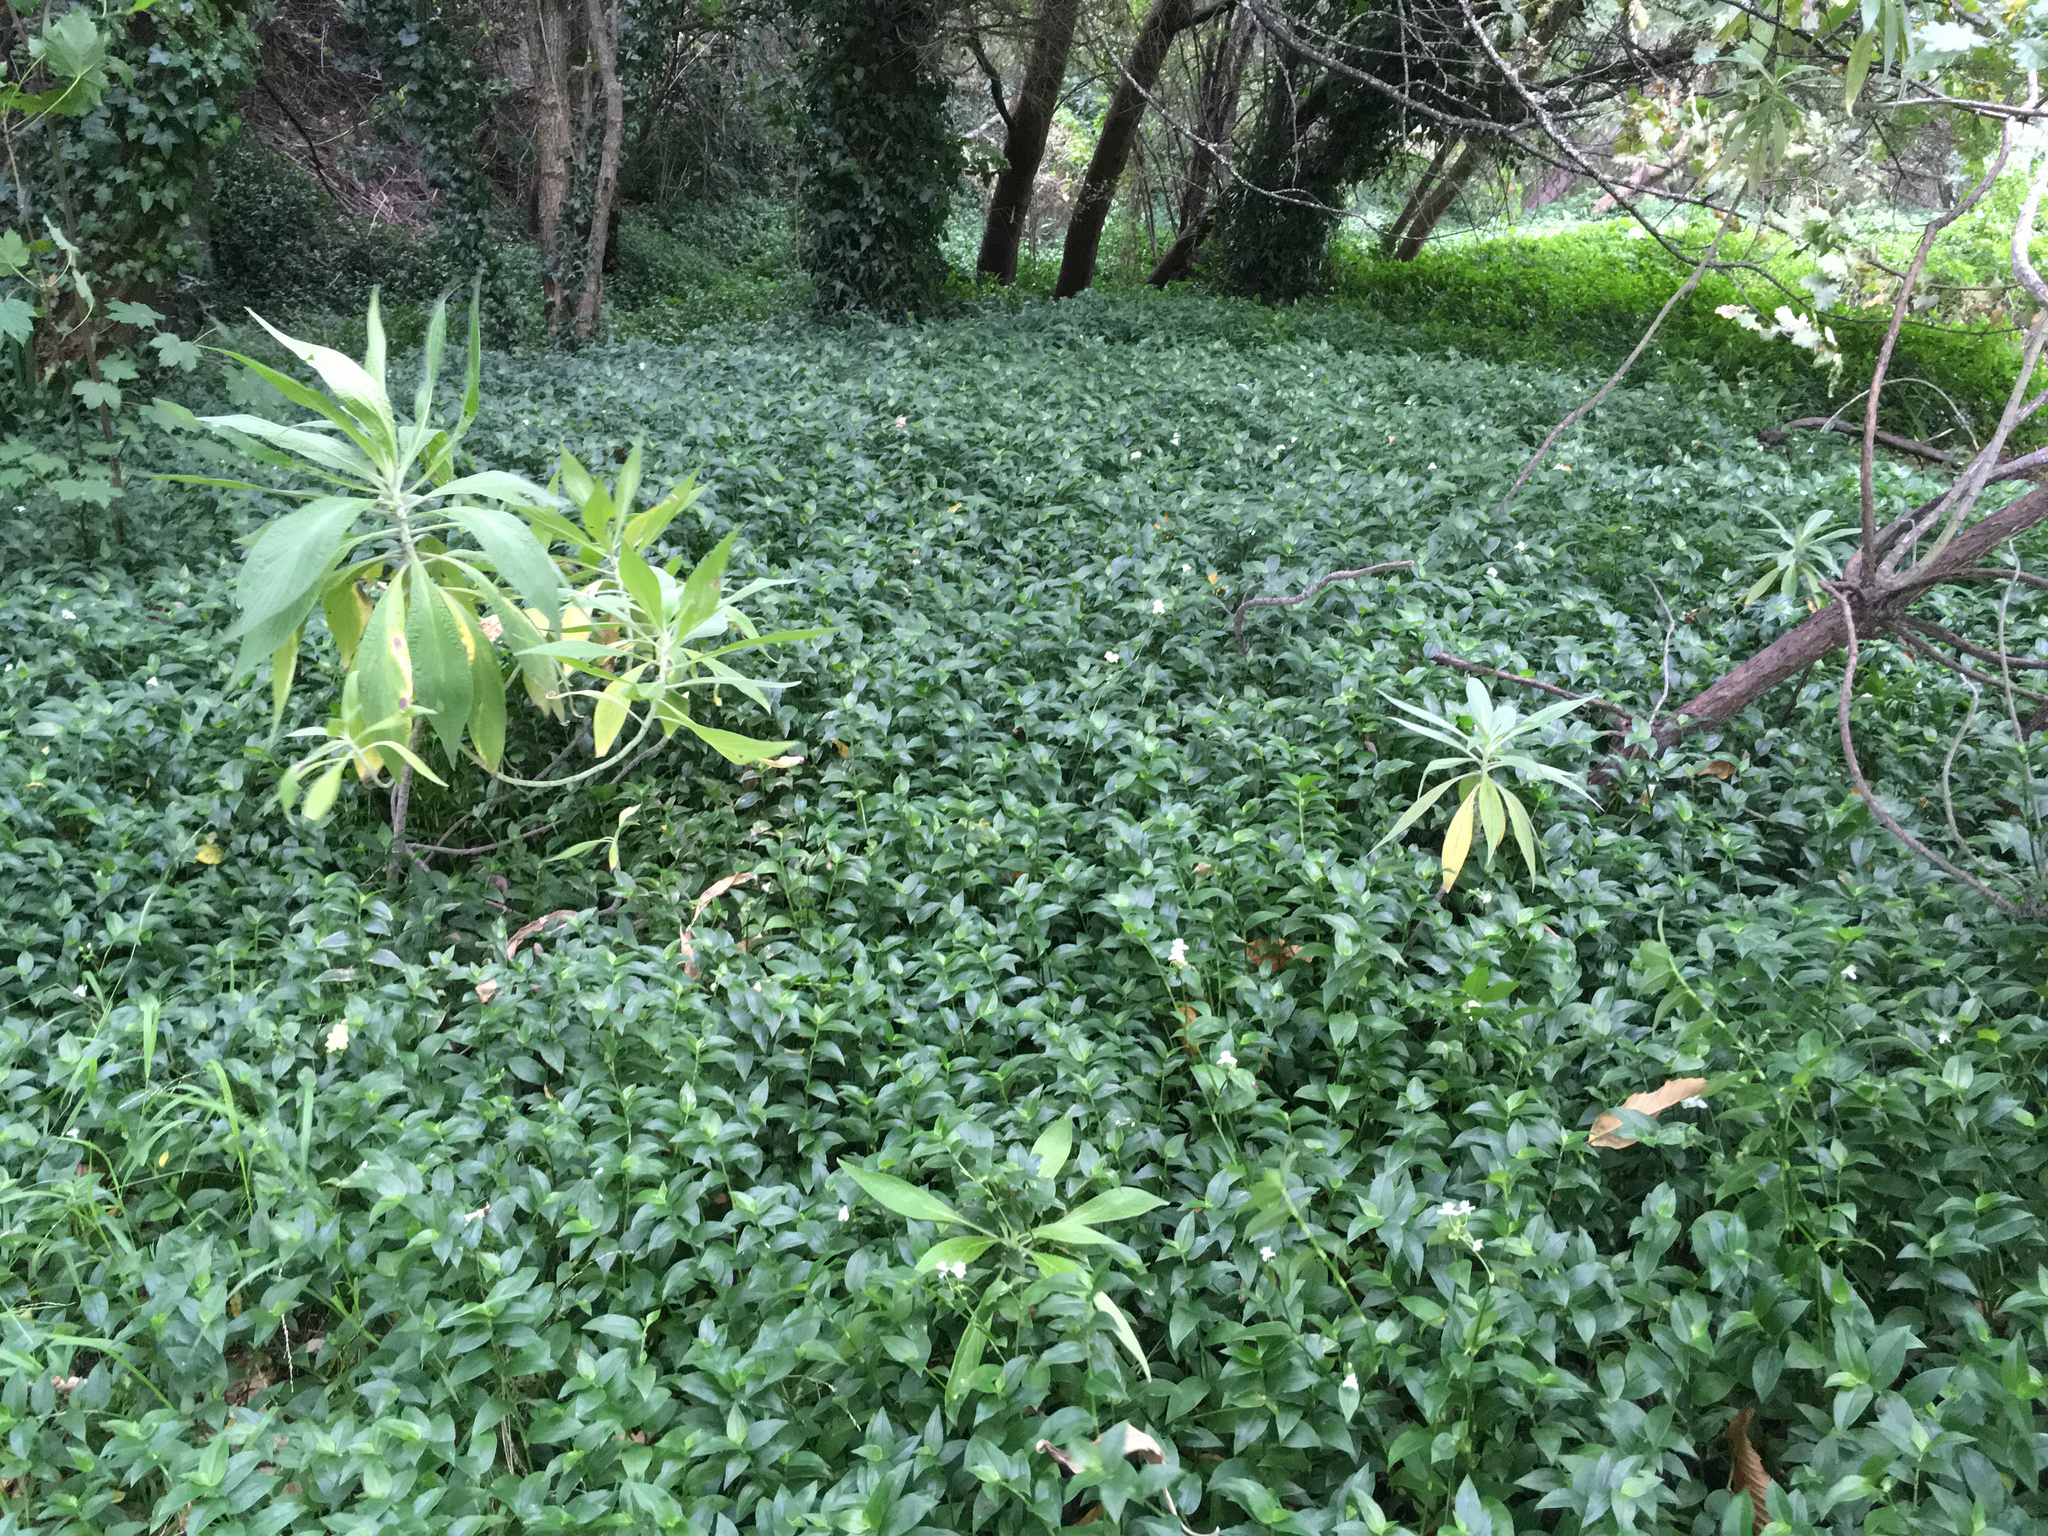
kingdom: Plantae
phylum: Tracheophyta
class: Liliopsida
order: Commelinales
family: Commelinaceae
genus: Tradescantia
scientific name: Tradescantia fluminensis
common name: Wandering-jew
